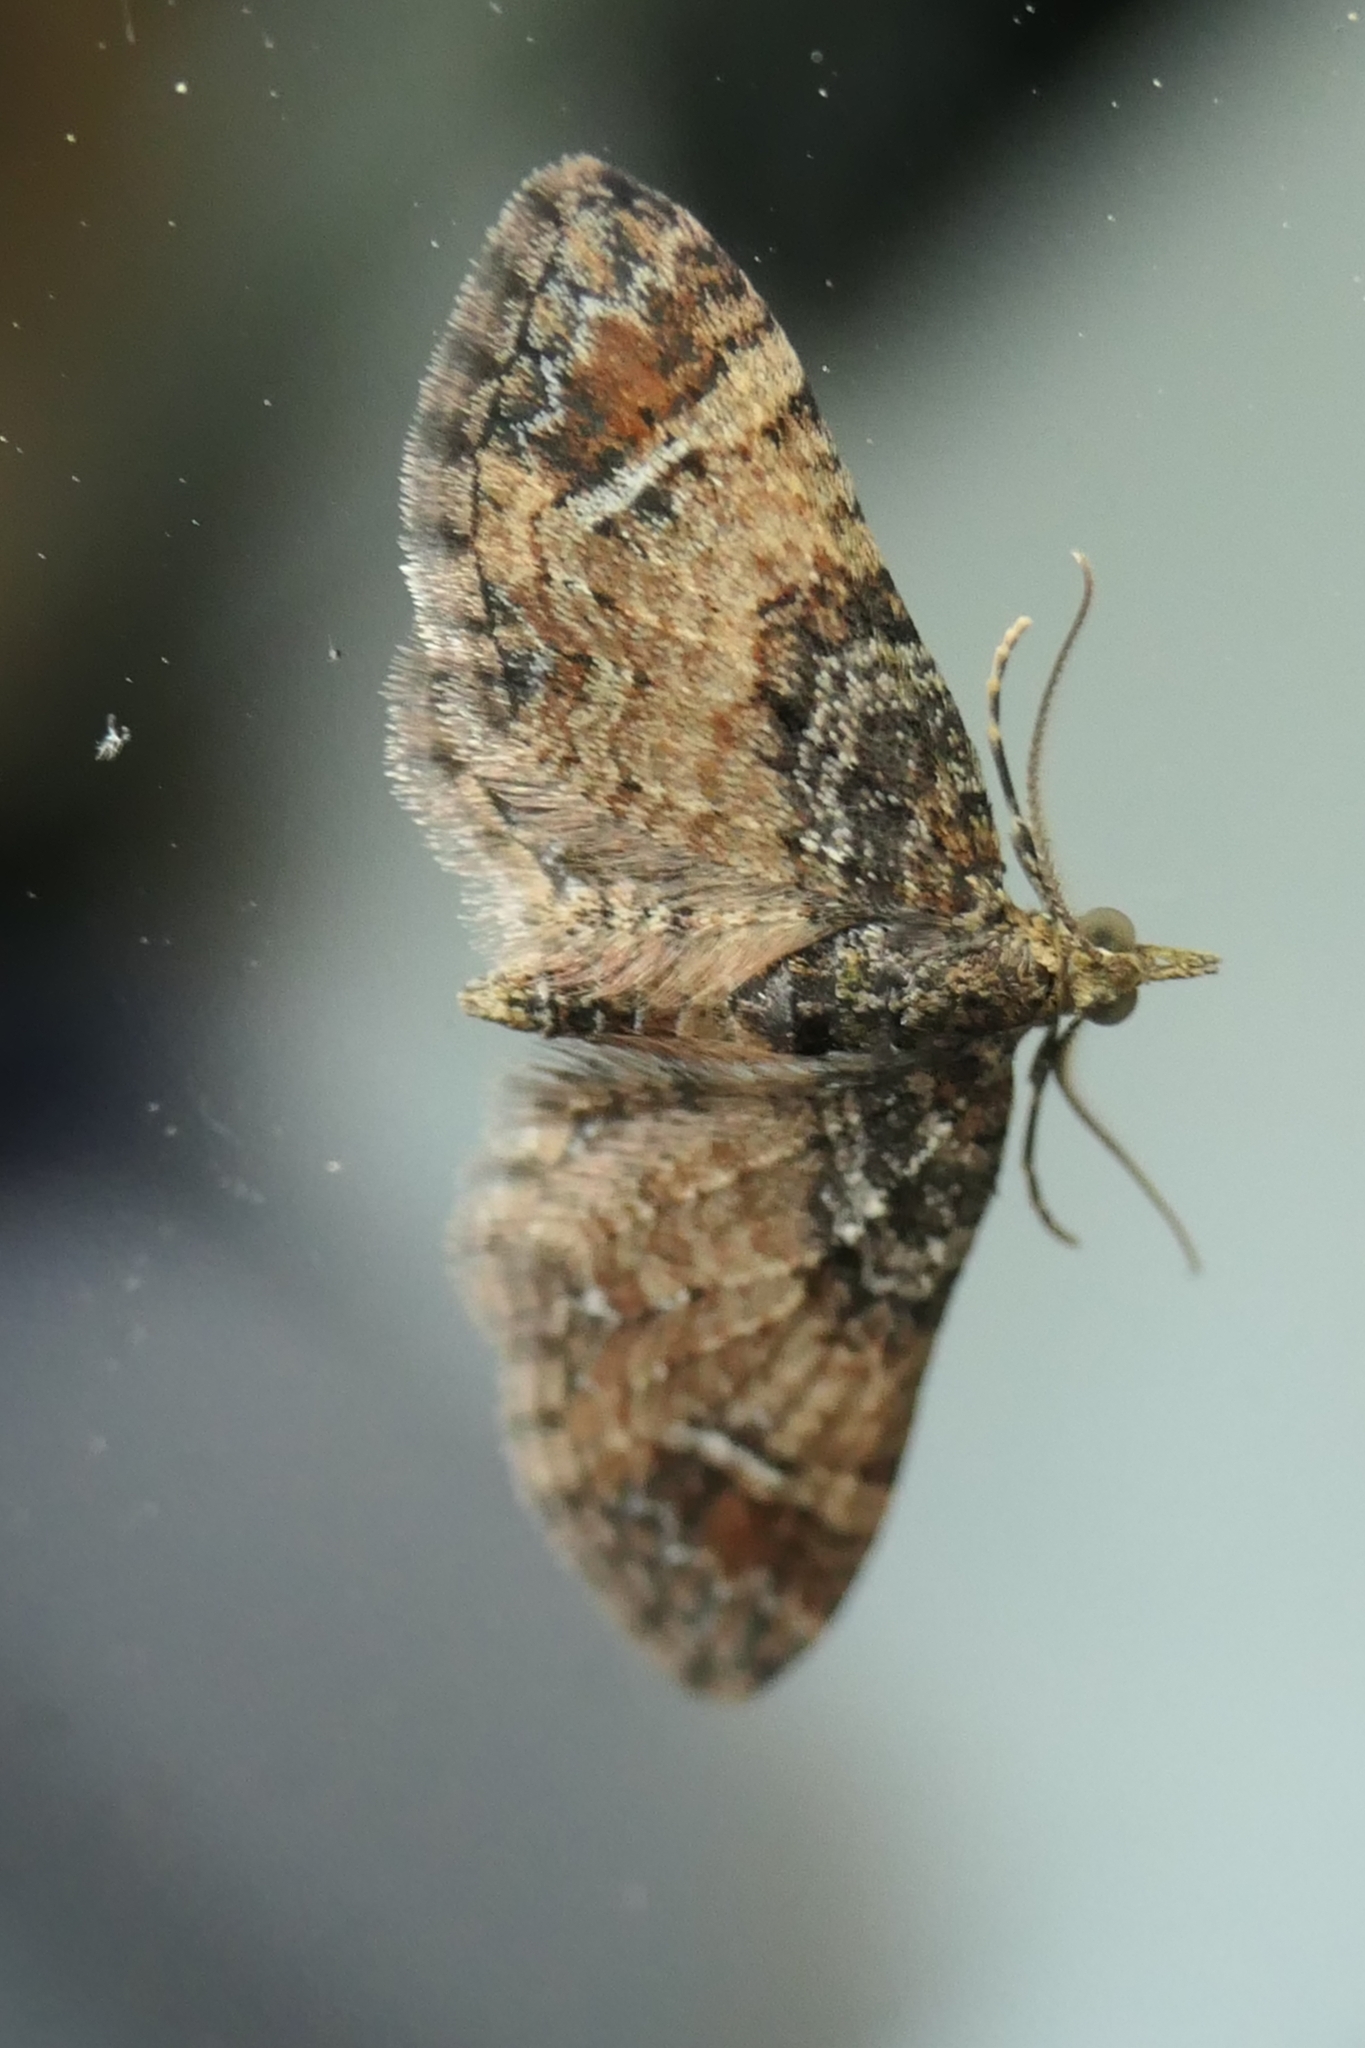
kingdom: Animalia
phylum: Arthropoda
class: Insecta
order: Lepidoptera
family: Geometridae
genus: Pasiphila
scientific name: Pasiphila sandycias
